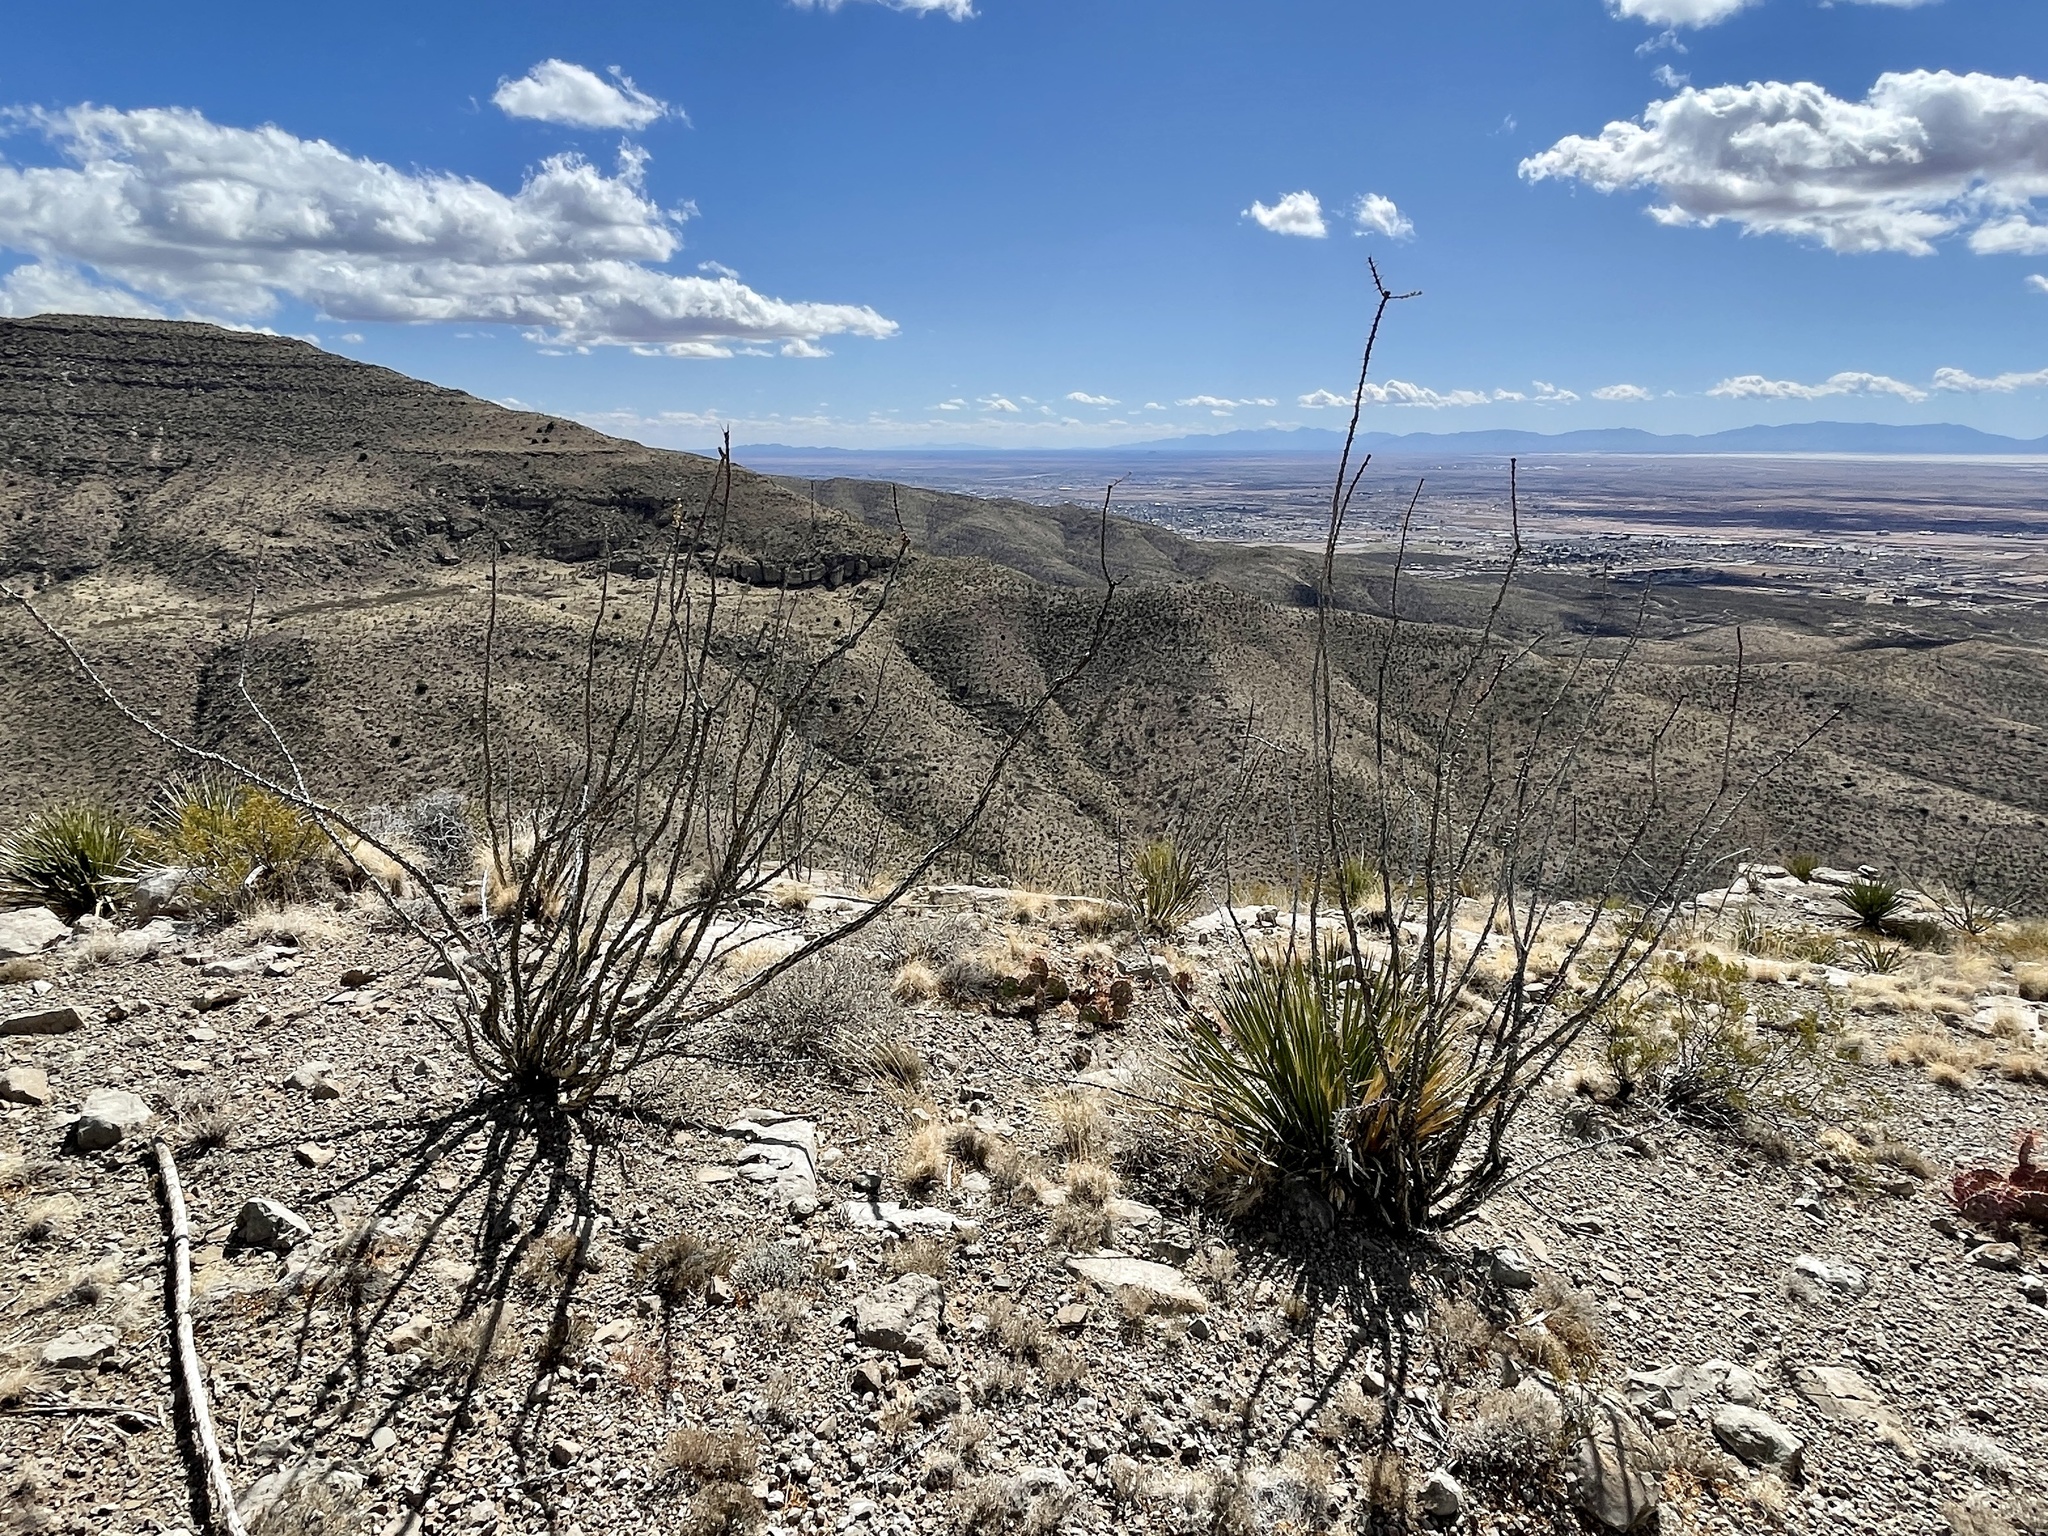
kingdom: Plantae
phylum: Tracheophyta
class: Magnoliopsida
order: Ericales
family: Fouquieriaceae
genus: Fouquieria
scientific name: Fouquieria splendens
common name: Vine-cactus
